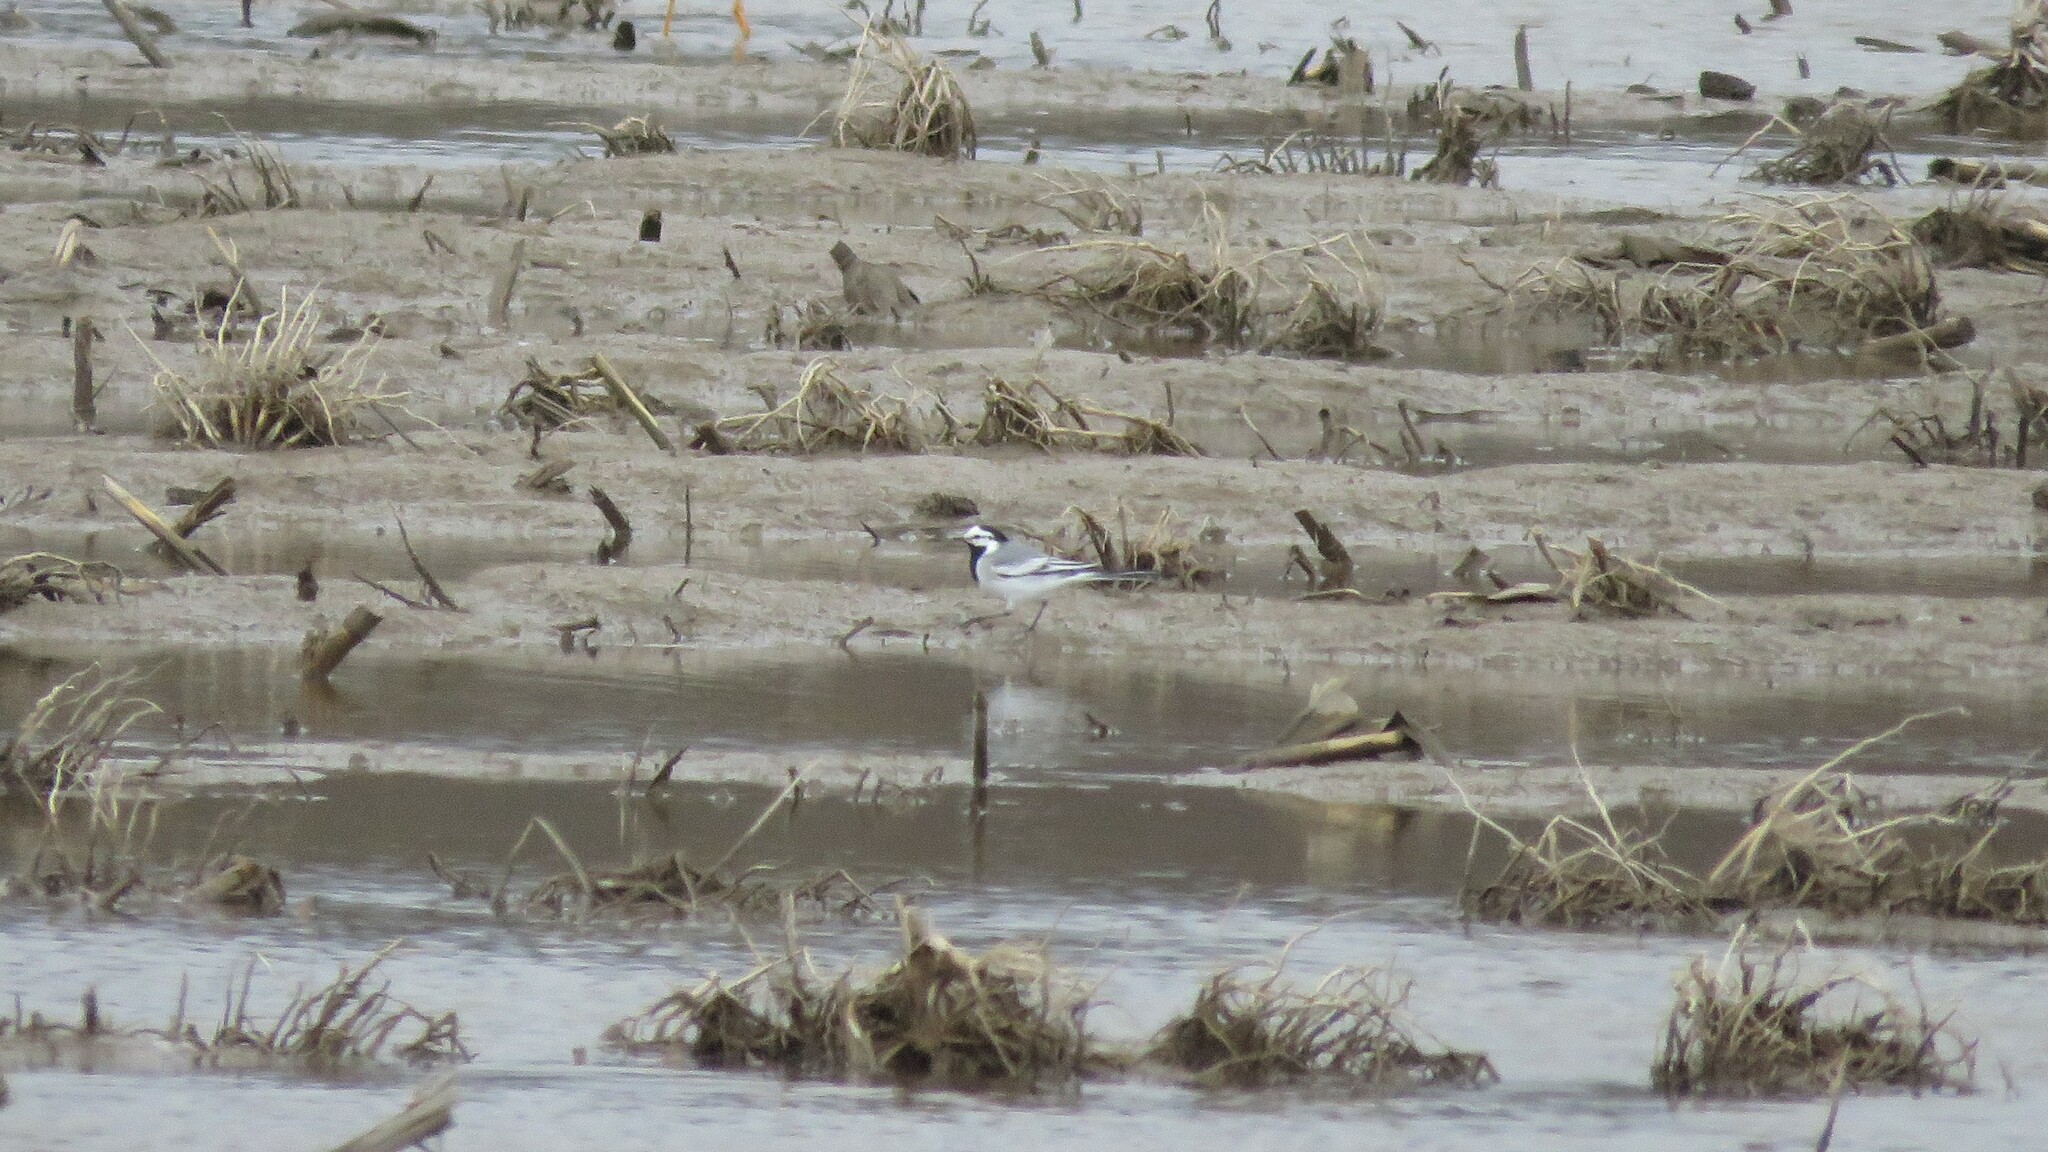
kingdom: Animalia
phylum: Chordata
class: Aves
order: Passeriformes
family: Motacillidae
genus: Motacilla
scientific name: Motacilla alba
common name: White wagtail
